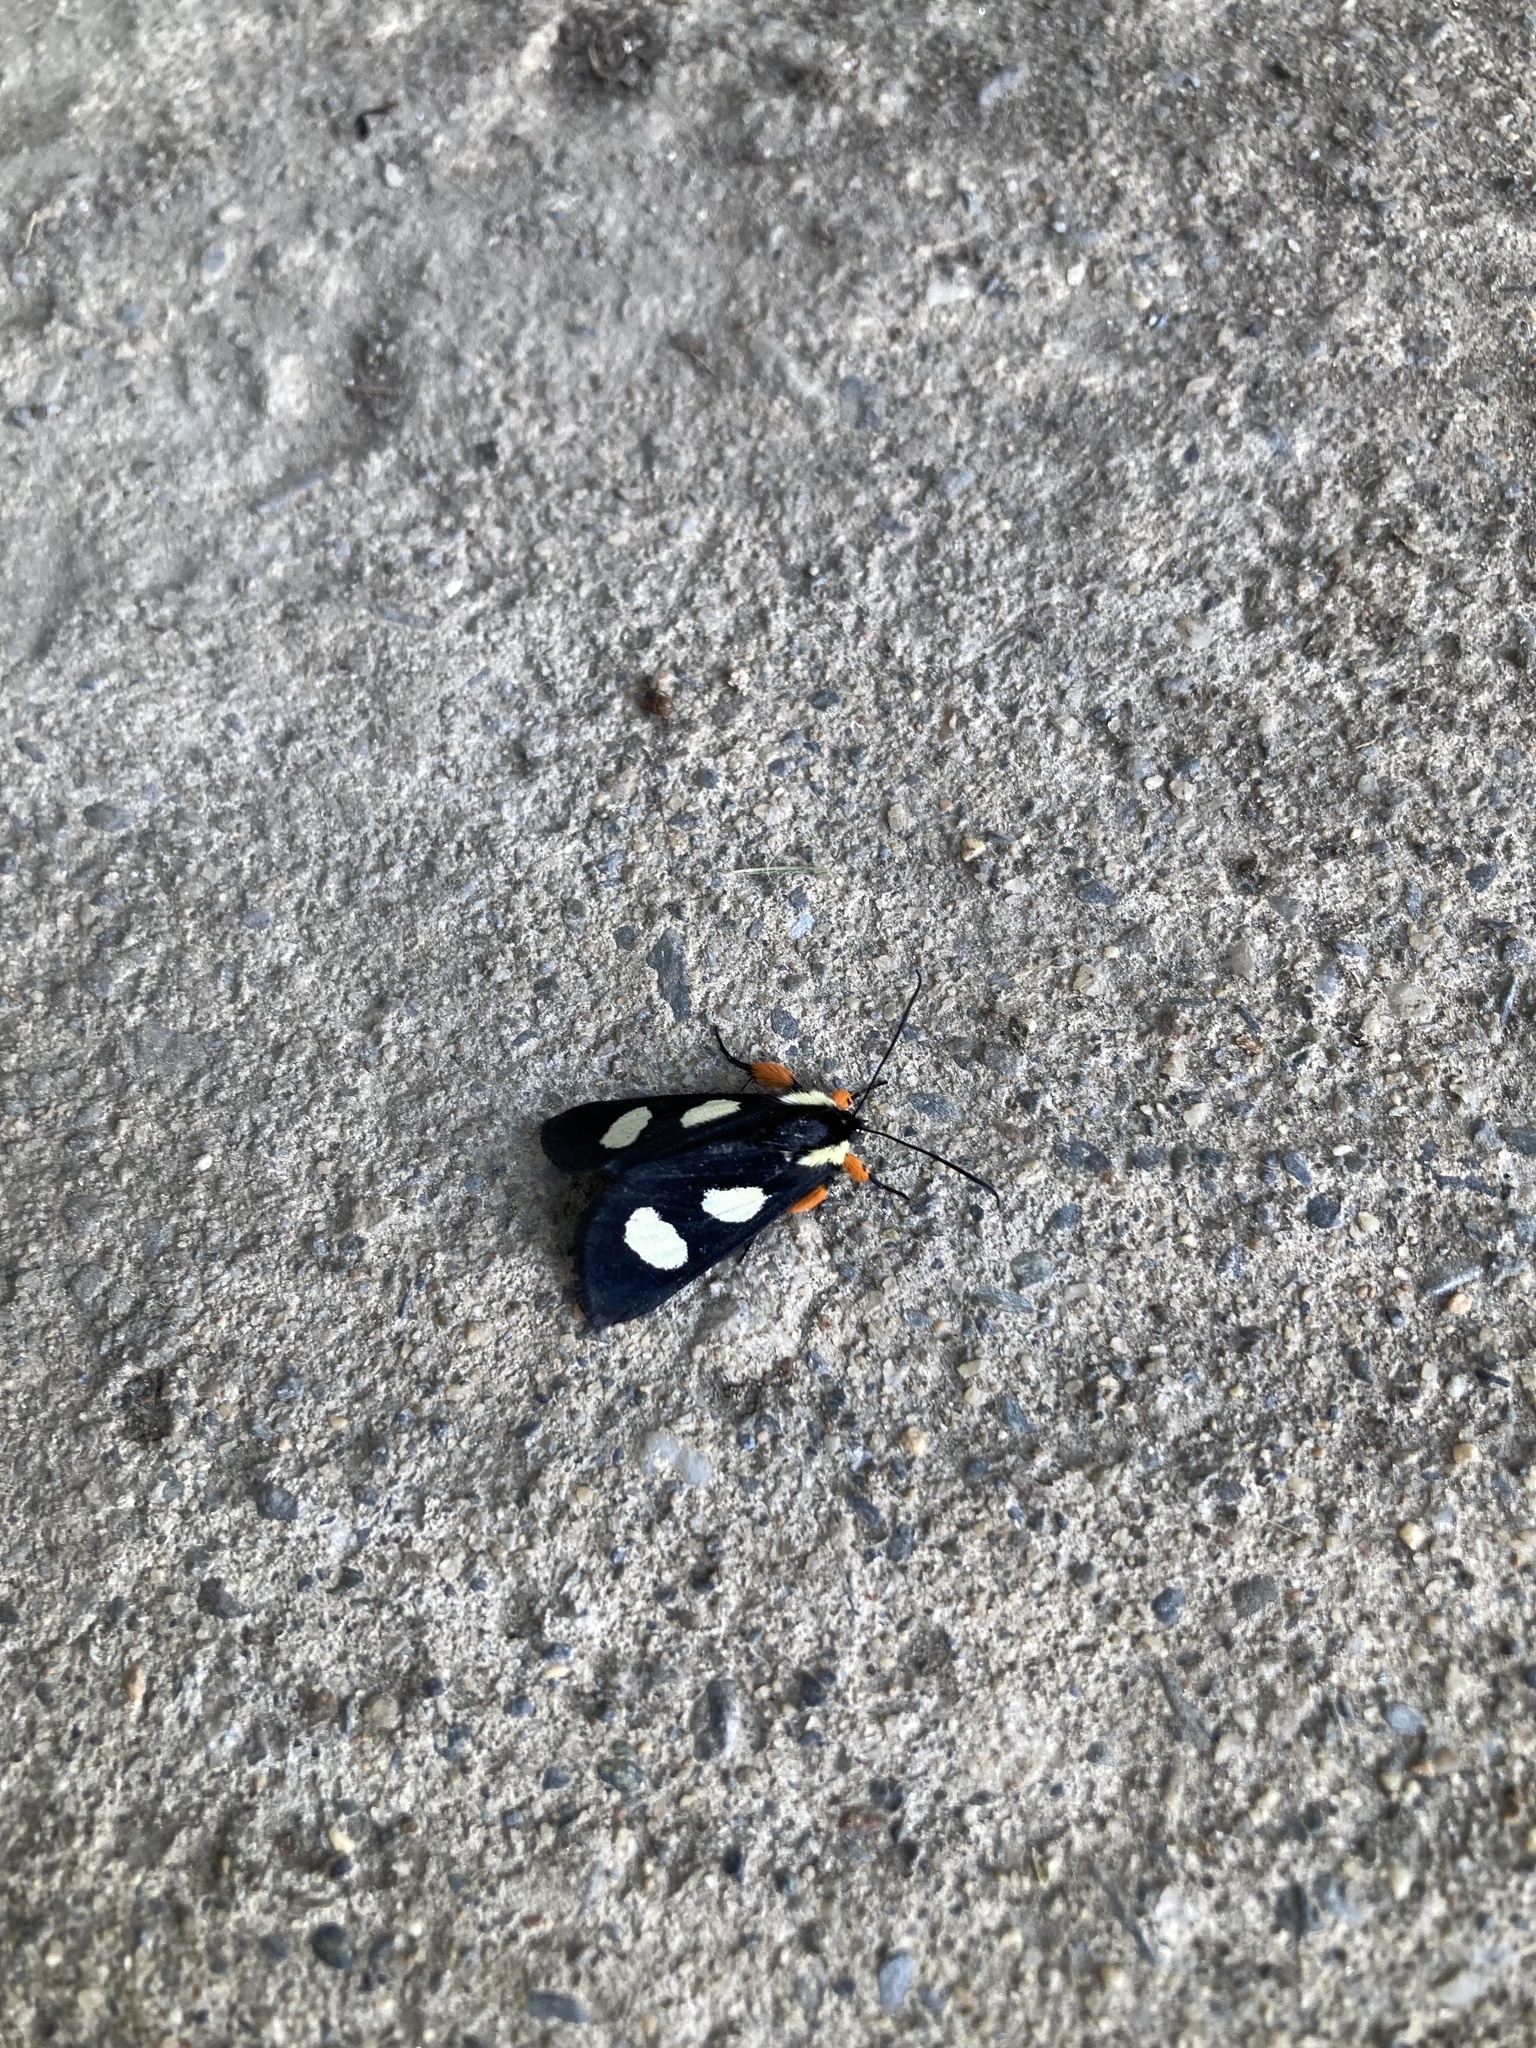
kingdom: Animalia
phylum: Arthropoda
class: Insecta
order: Lepidoptera
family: Noctuidae
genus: Alypia
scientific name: Alypia octomaculata
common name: Eight-spotted forester
